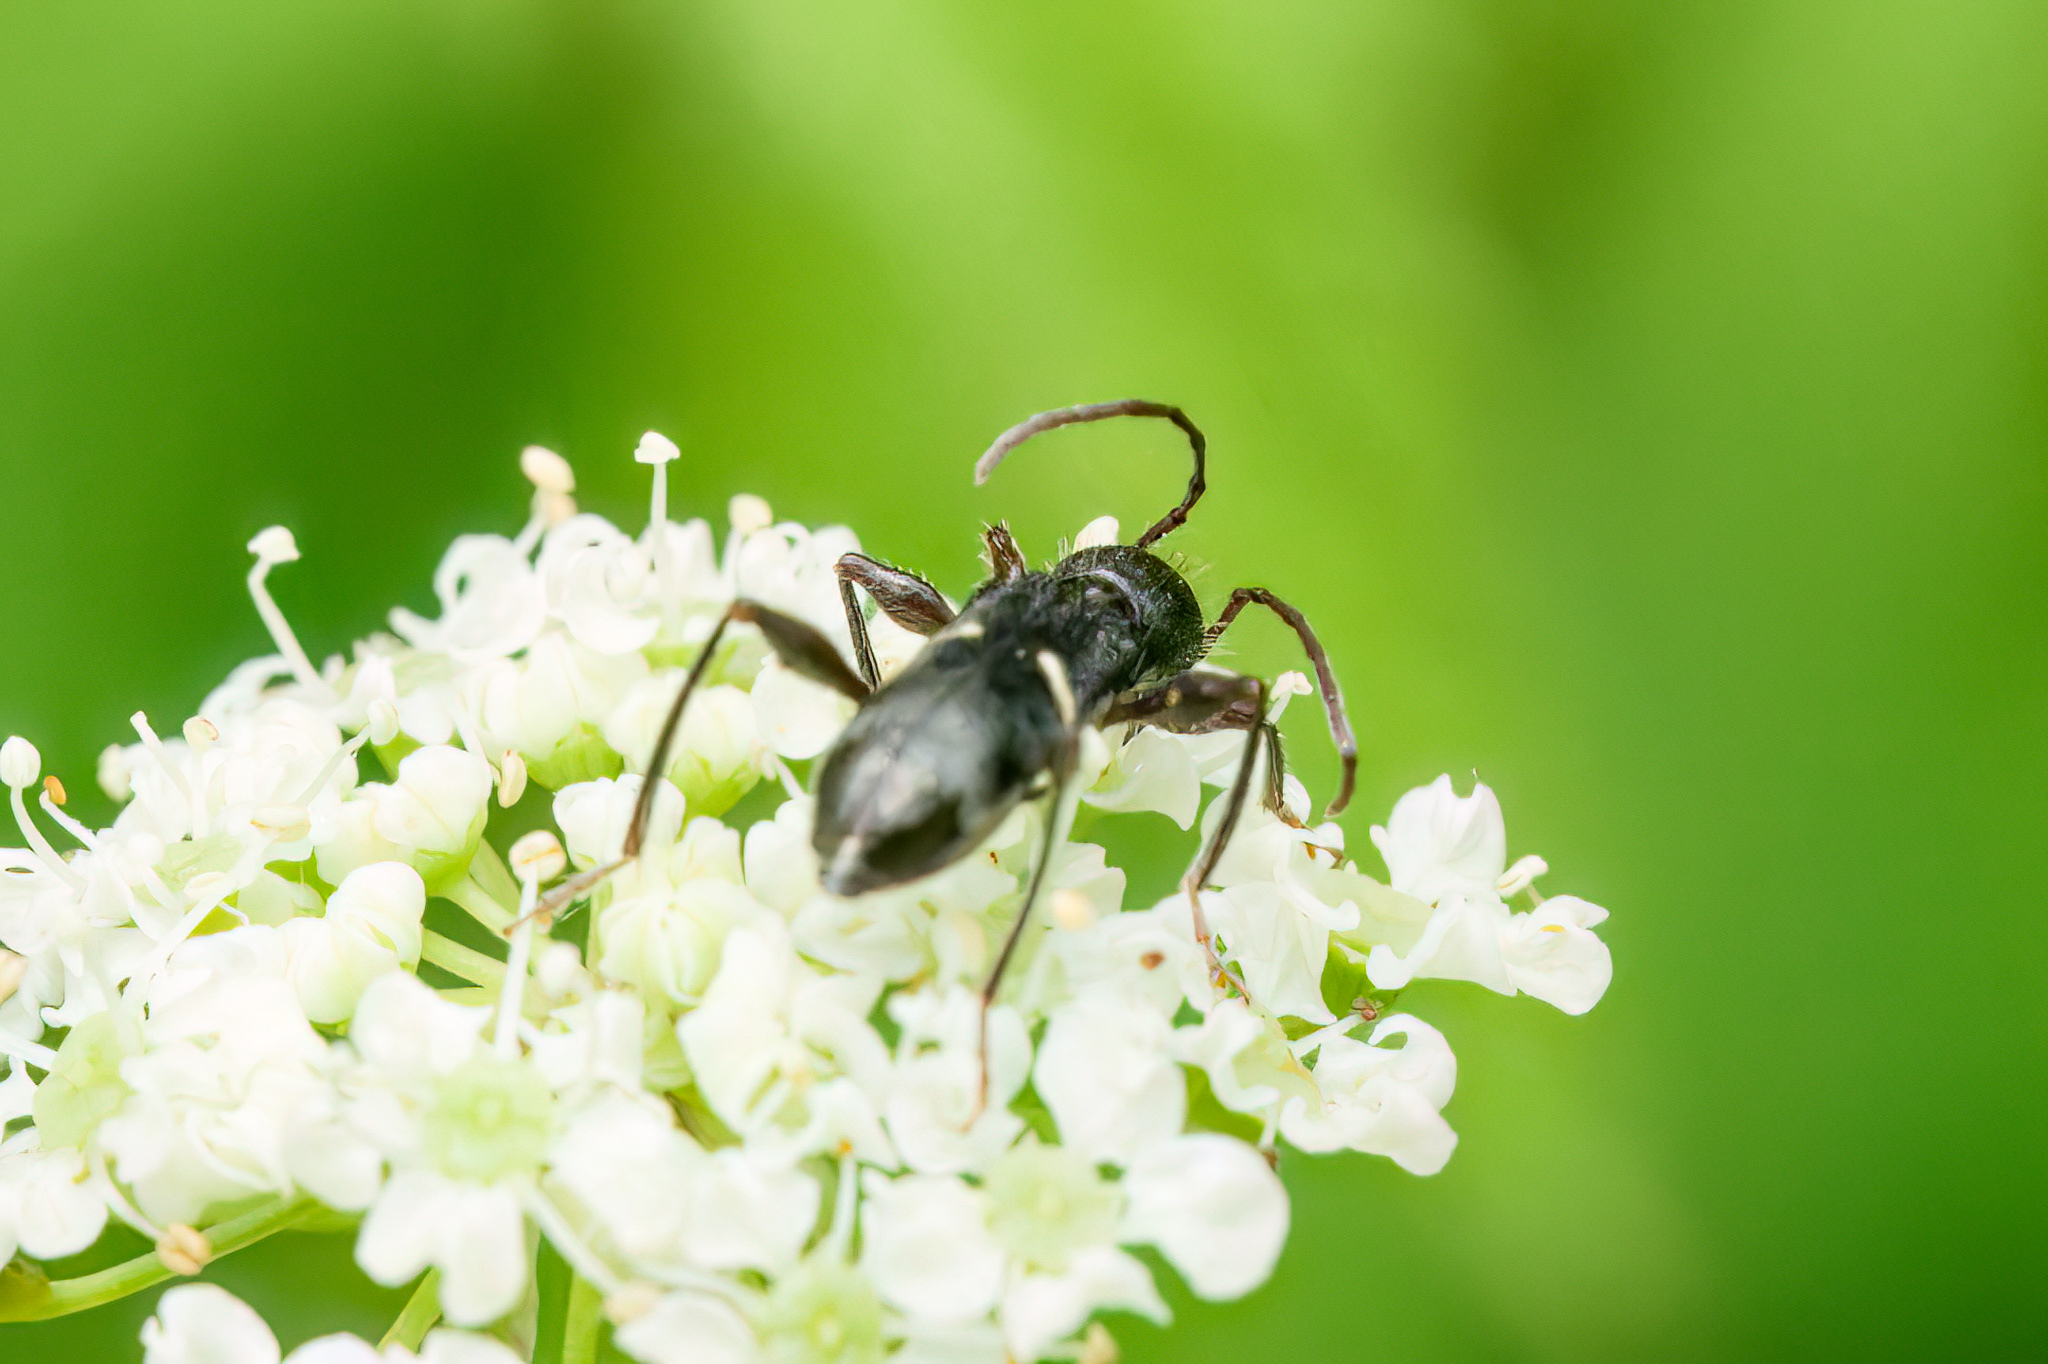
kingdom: Animalia
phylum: Arthropoda
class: Insecta
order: Coleoptera
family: Cerambycidae
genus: Euderces
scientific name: Euderces picipes
